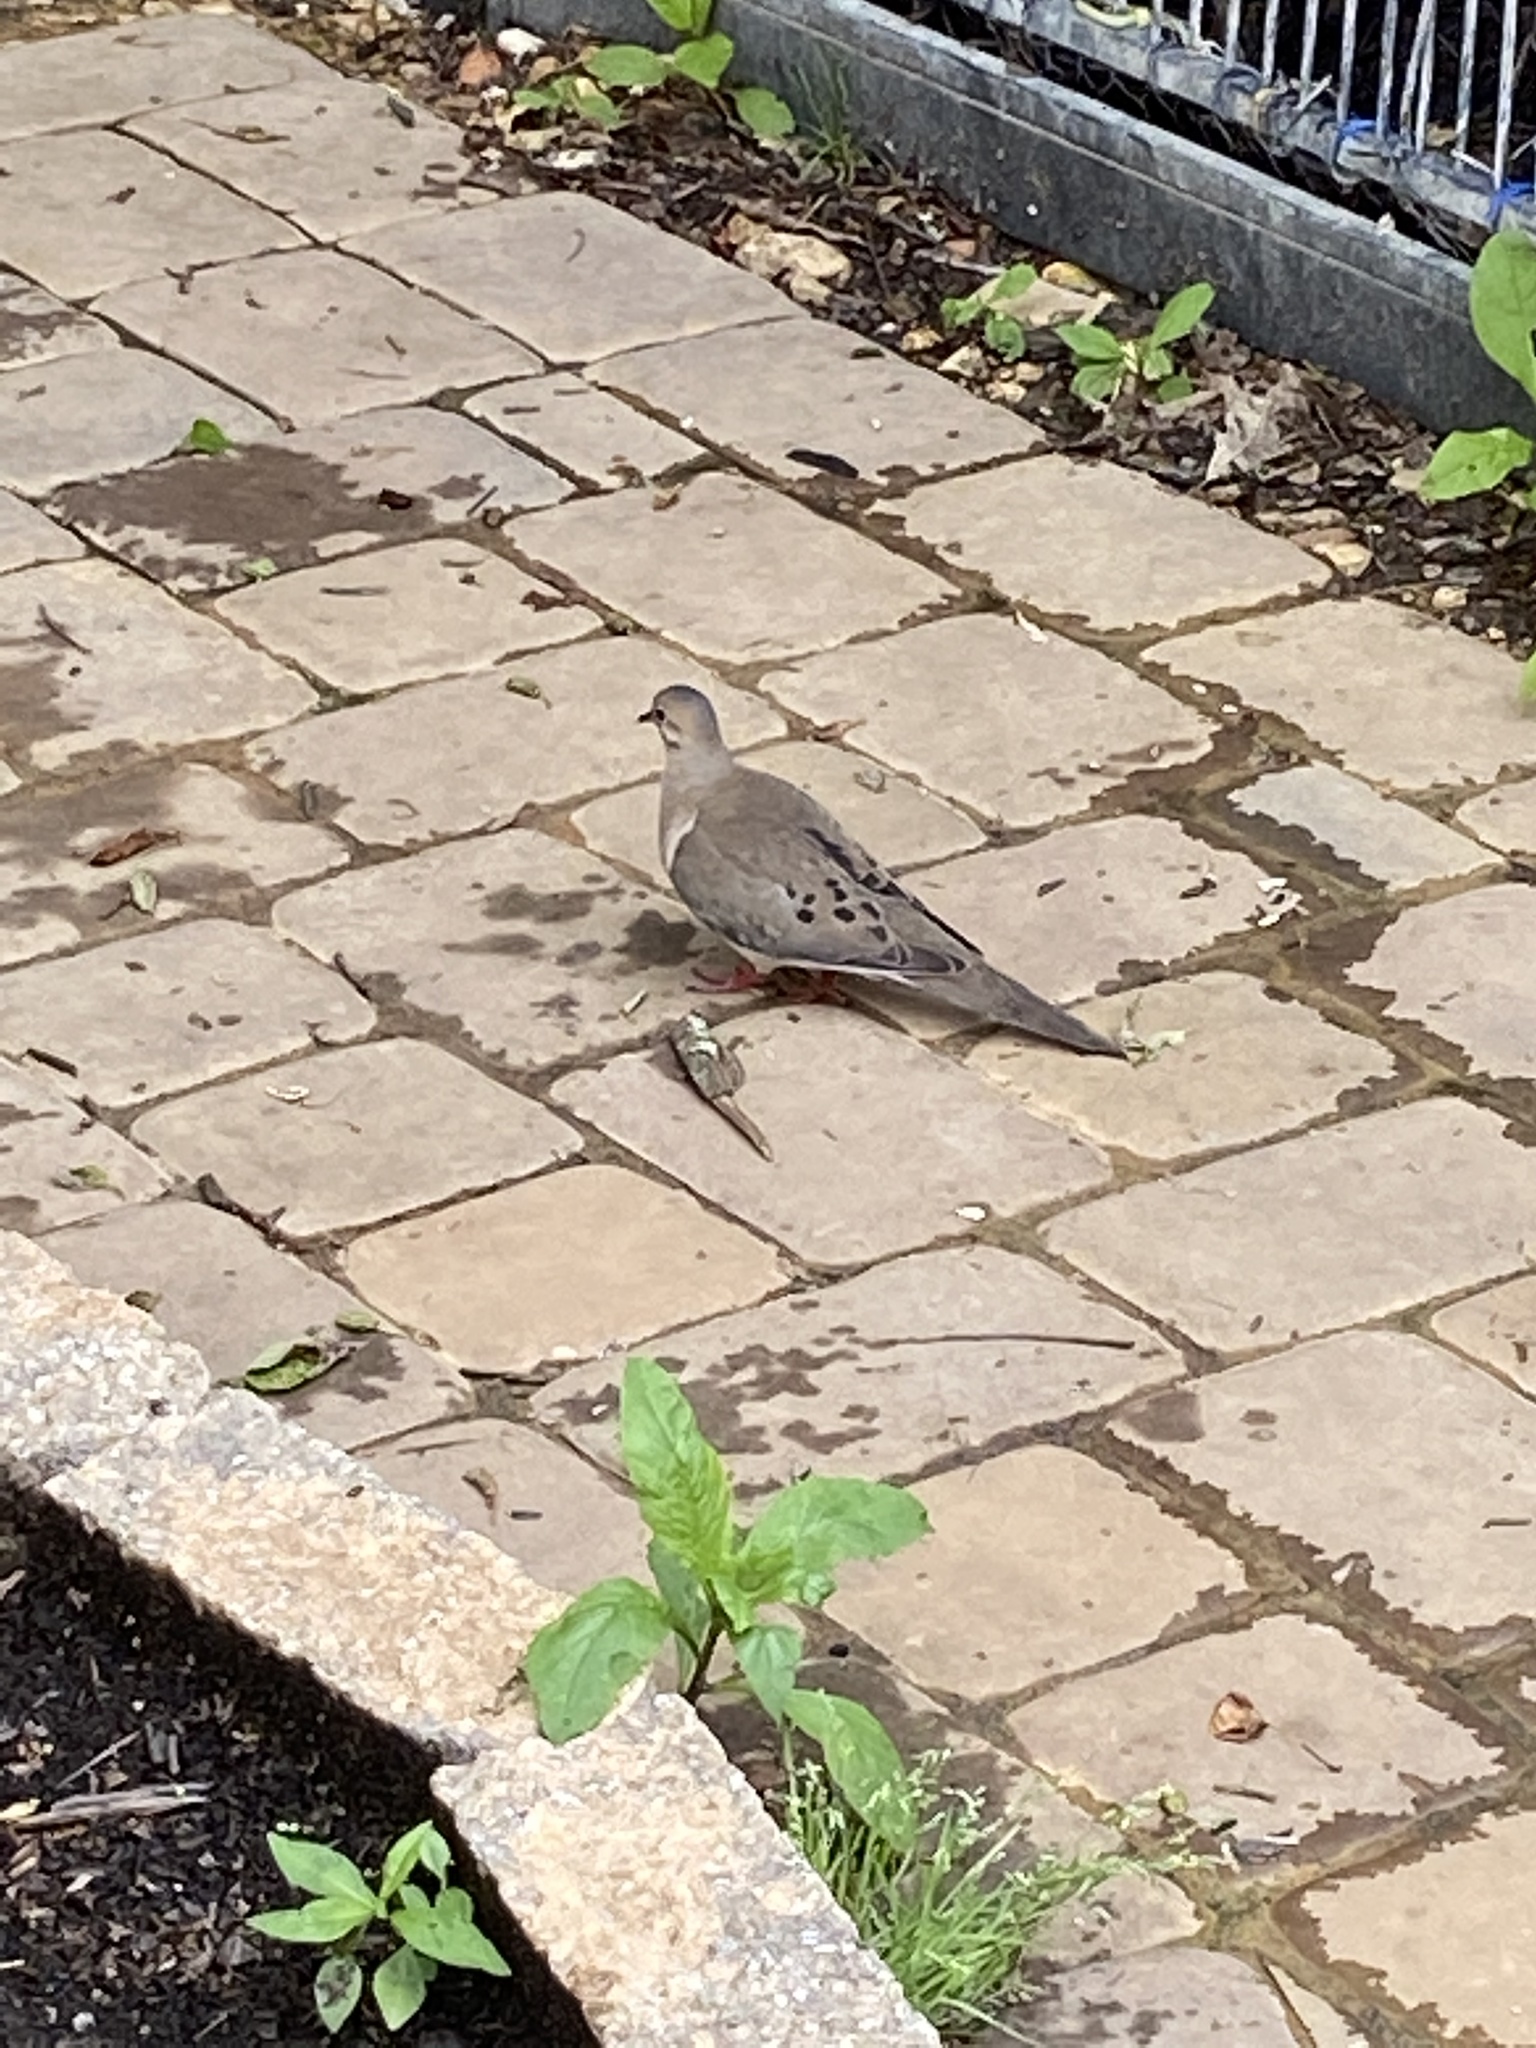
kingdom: Animalia
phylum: Chordata
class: Aves
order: Columbiformes
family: Columbidae
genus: Zenaida
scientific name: Zenaida macroura
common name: Mourning dove
